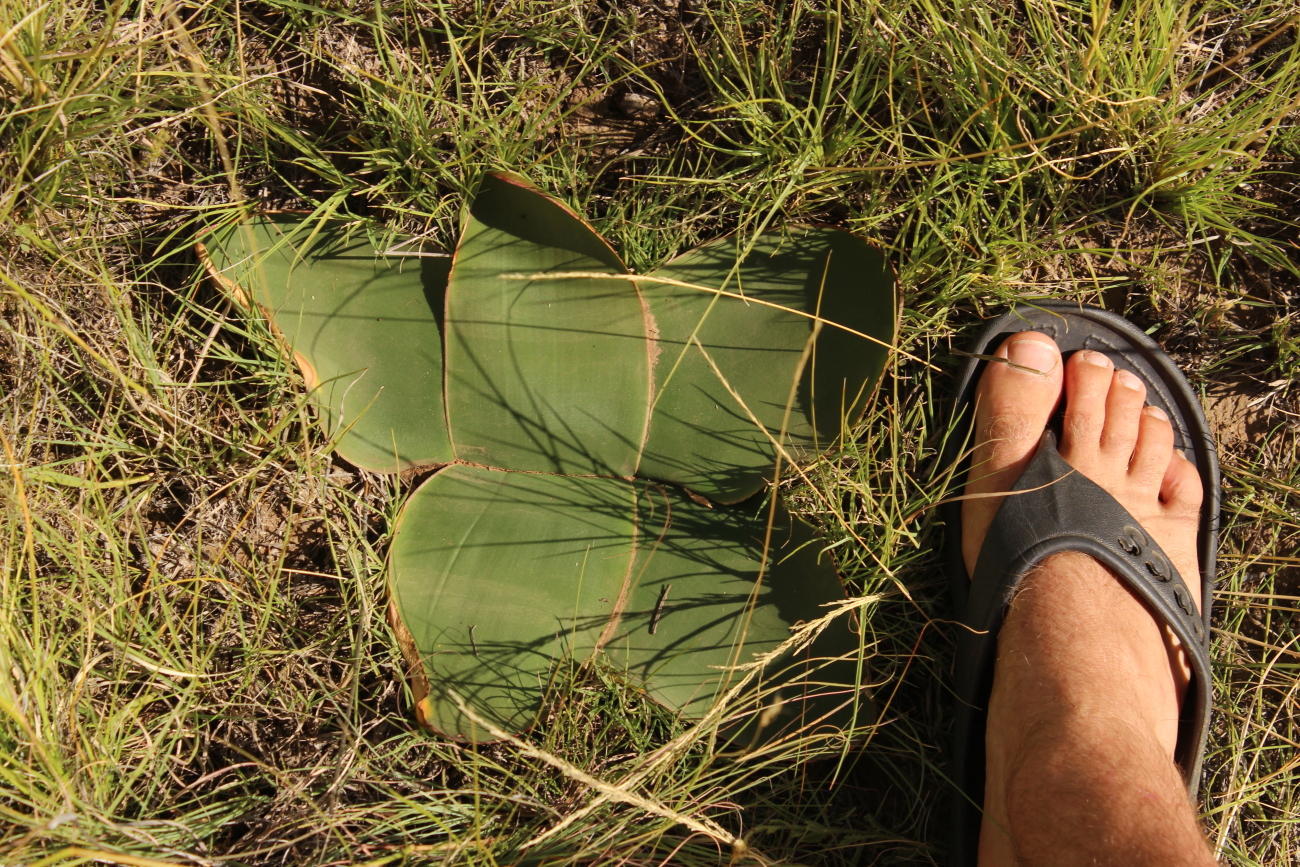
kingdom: Plantae
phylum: Tracheophyta
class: Liliopsida
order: Asparagales
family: Amaryllidaceae
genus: Brunsvigia
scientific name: Brunsvigia radulosa
